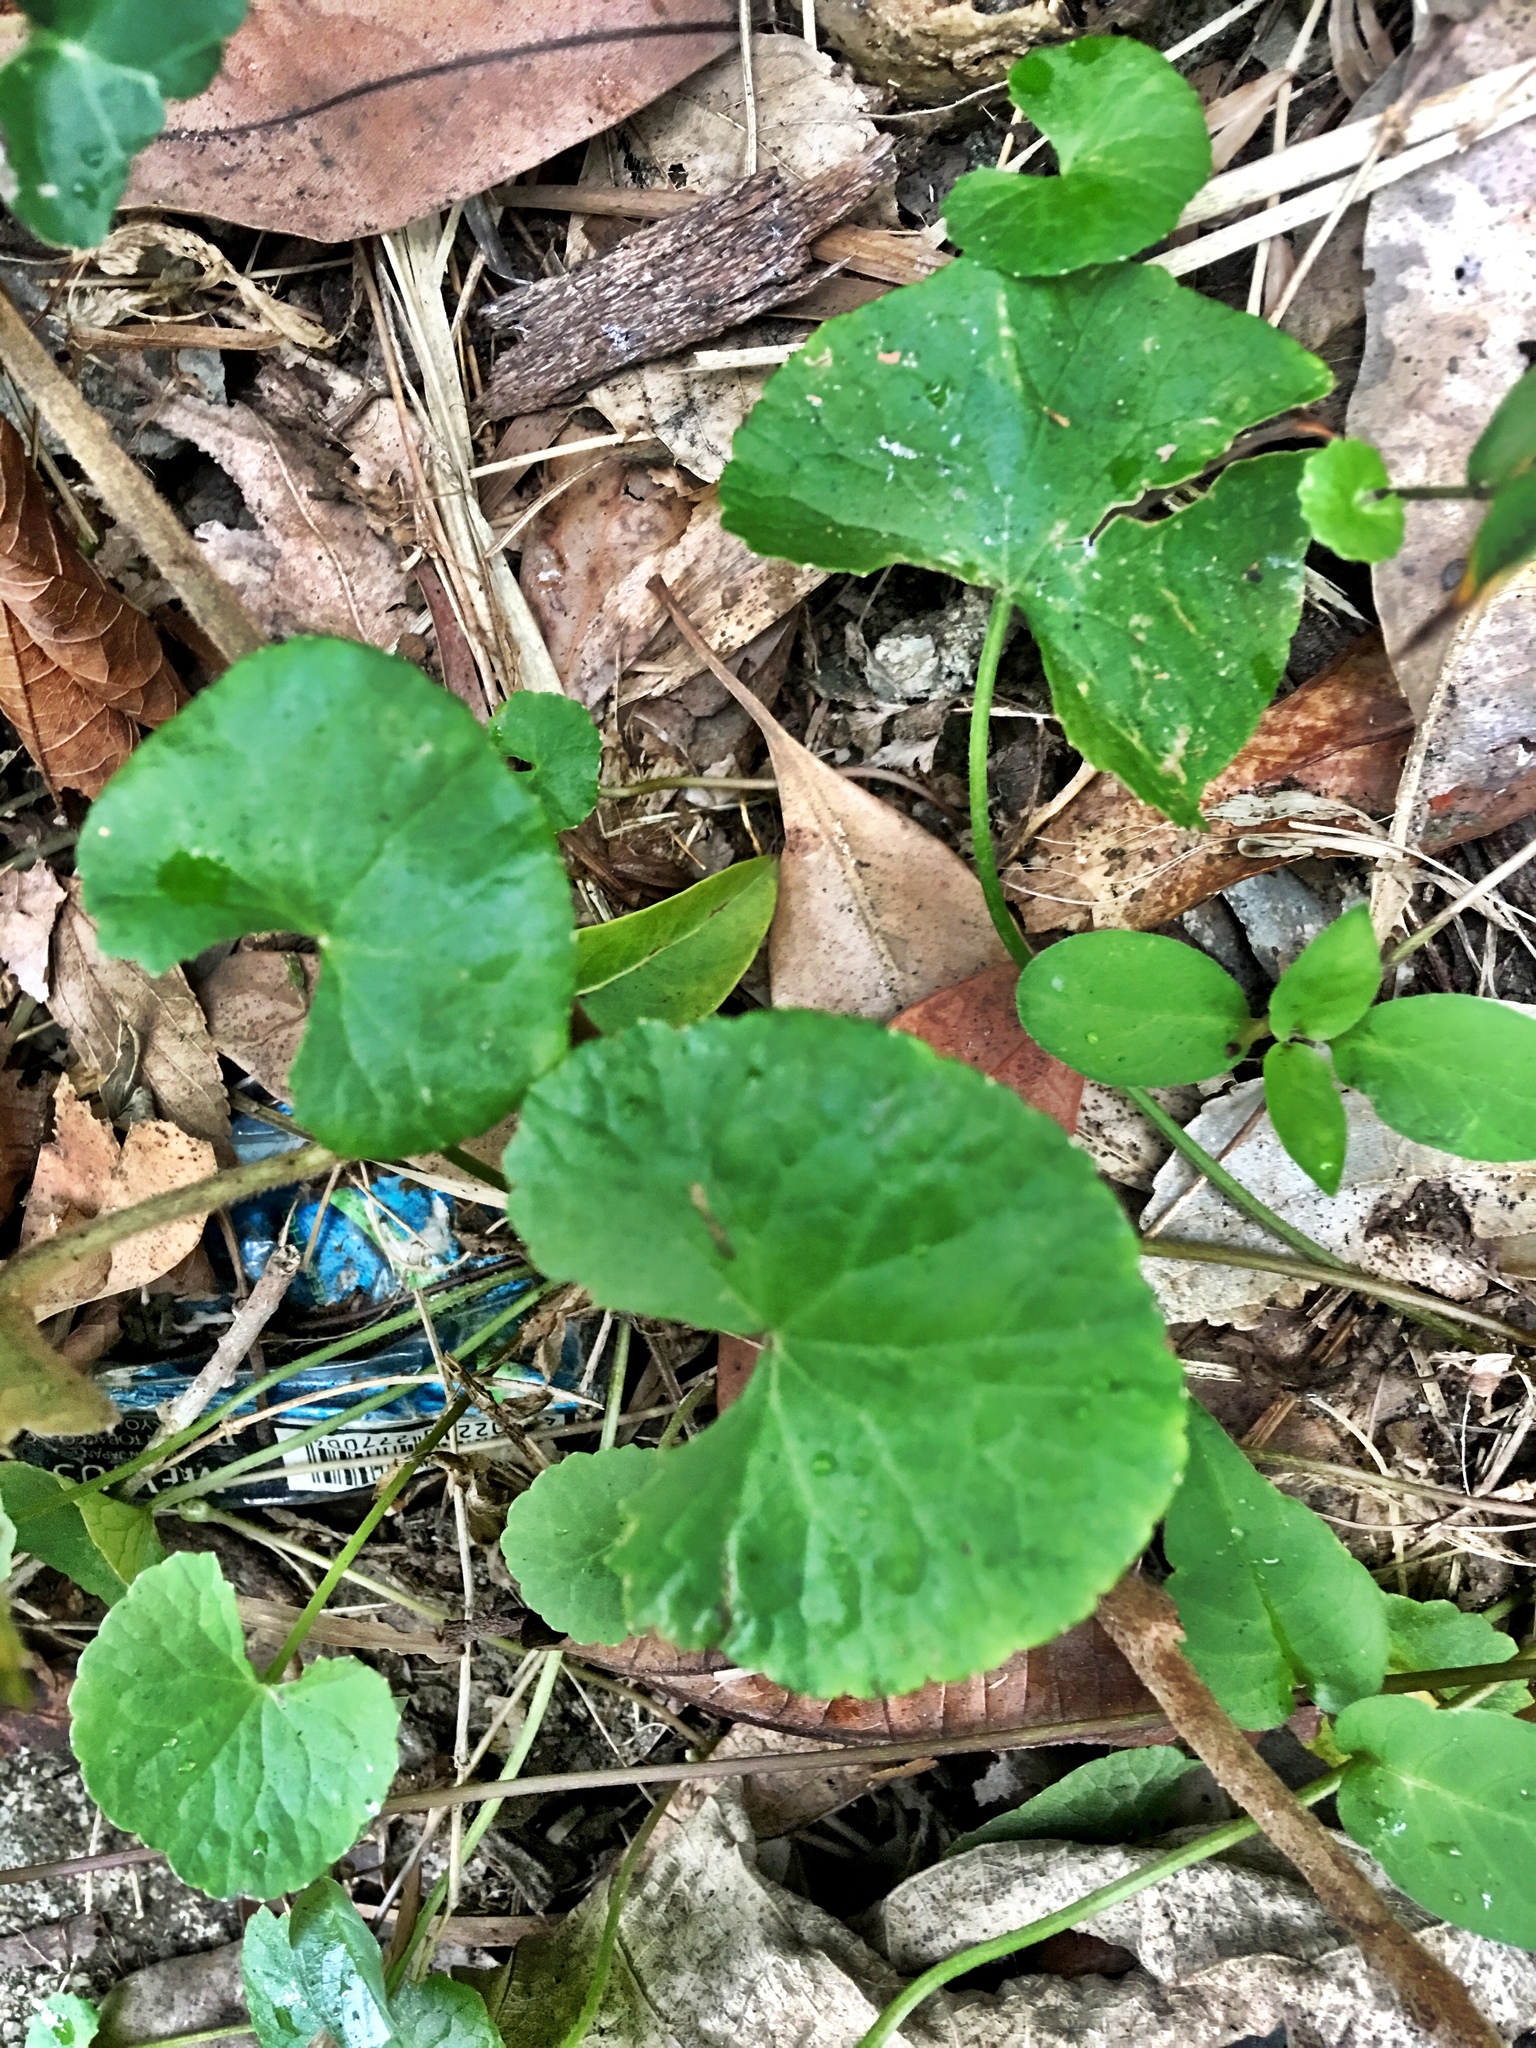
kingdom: Plantae
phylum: Tracheophyta
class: Magnoliopsida
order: Apiales
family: Apiaceae
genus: Centella
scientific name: Centella asiatica
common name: Spadeleaf
